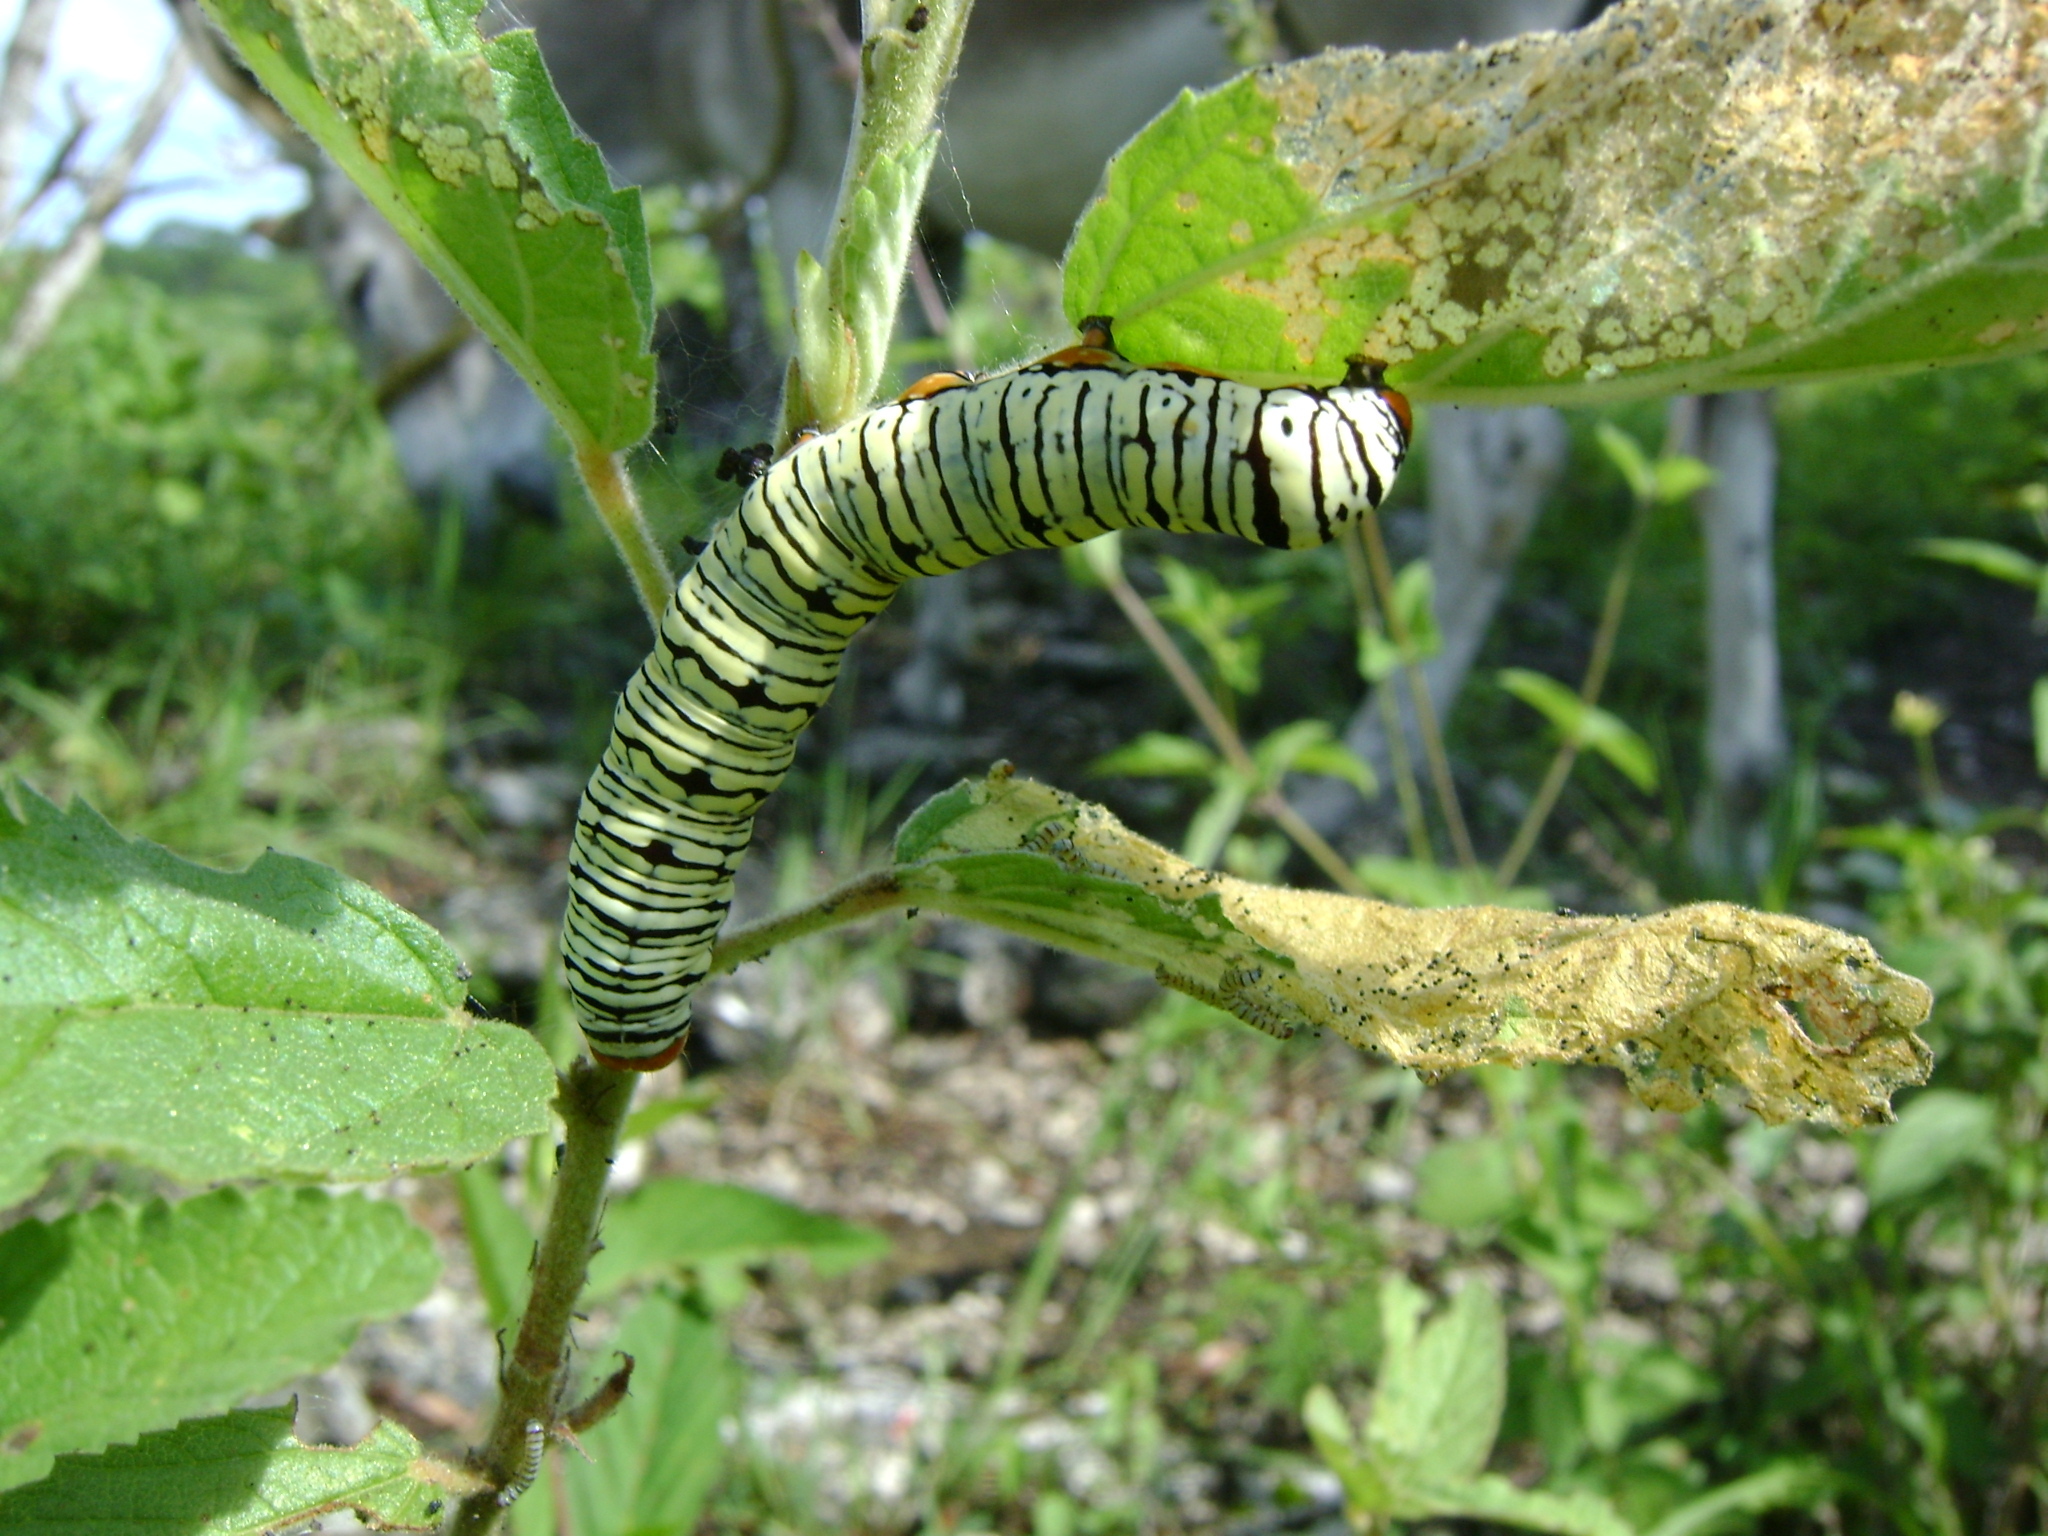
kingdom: Animalia
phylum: Arthropoda
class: Insecta
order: Lepidoptera
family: Erebidae
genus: Diphthera
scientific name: Diphthera festiva
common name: Hieroglyphic moth
